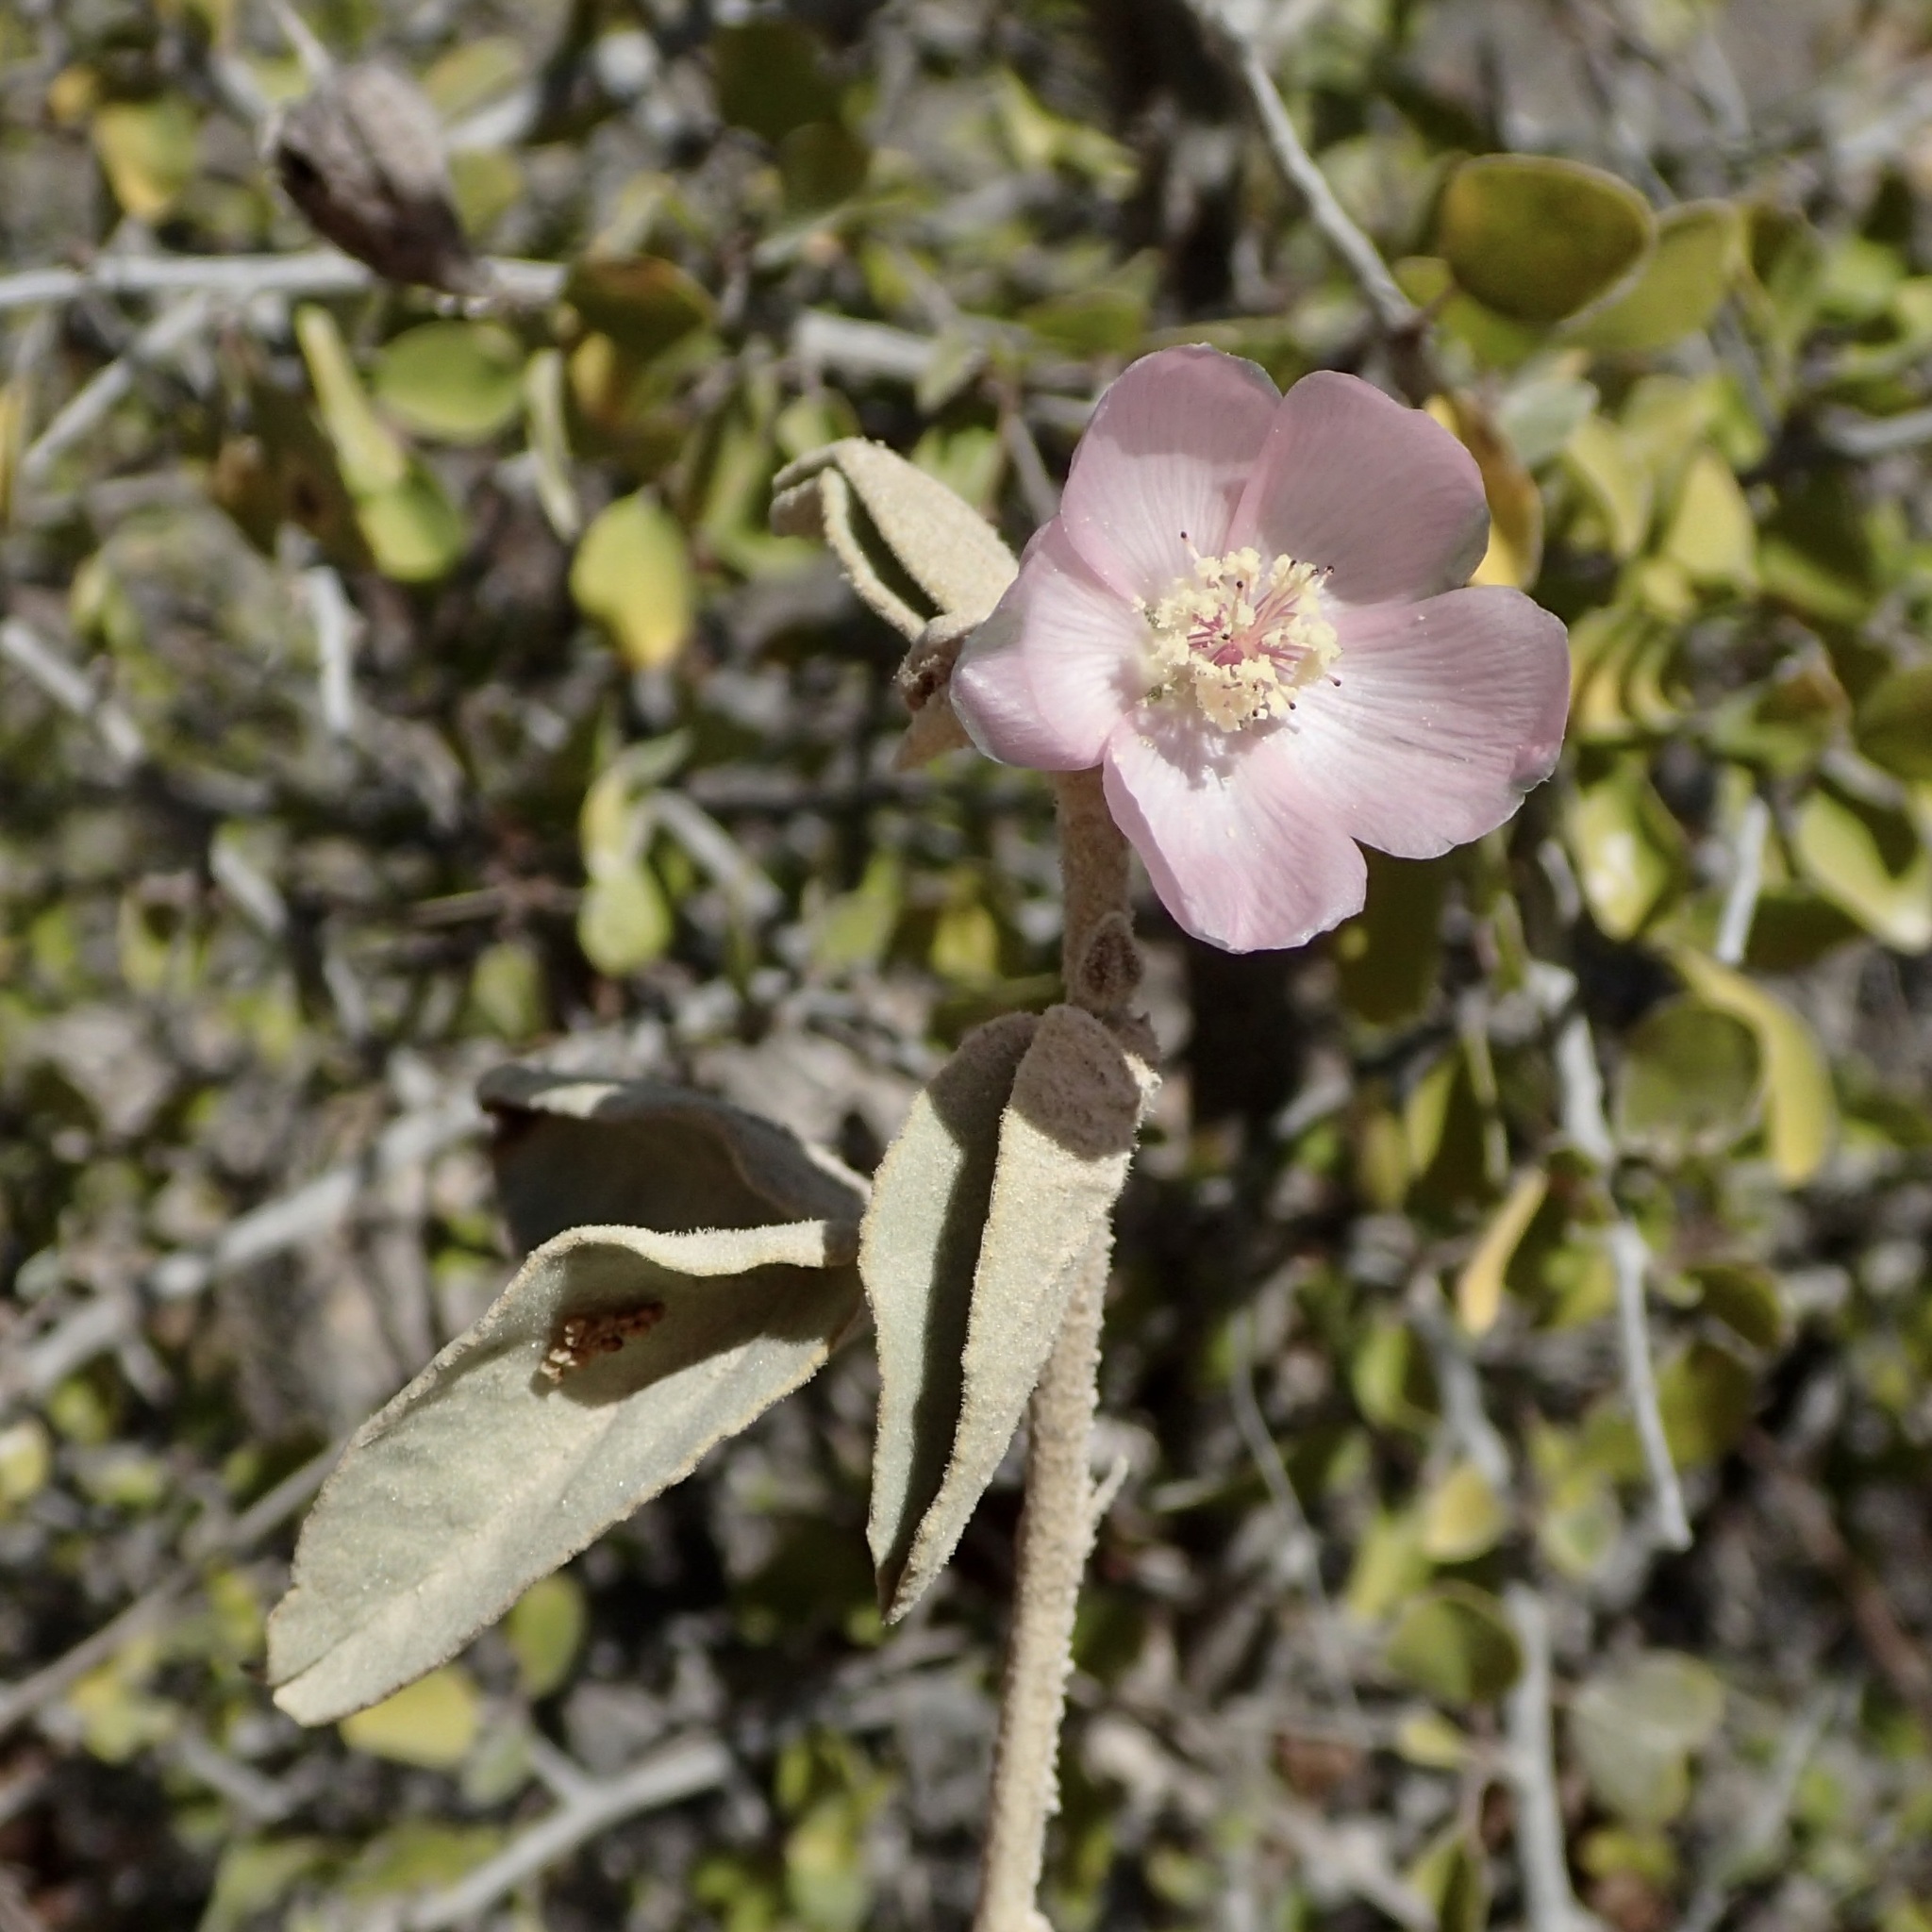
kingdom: Plantae
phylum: Tracheophyta
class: Magnoliopsida
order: Malvales
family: Malvaceae
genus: Horsfordia
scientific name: Horsfordia alata
